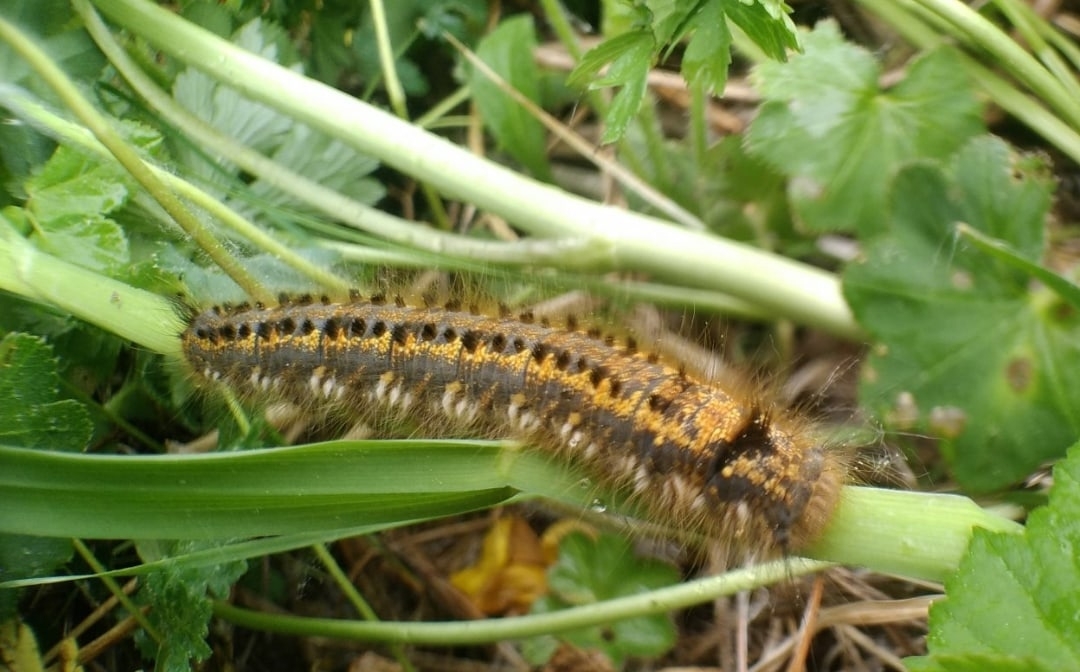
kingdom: Animalia
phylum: Arthropoda
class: Insecta
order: Lepidoptera
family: Lasiocampidae
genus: Euthrix
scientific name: Euthrix potatoria
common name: Drinker
